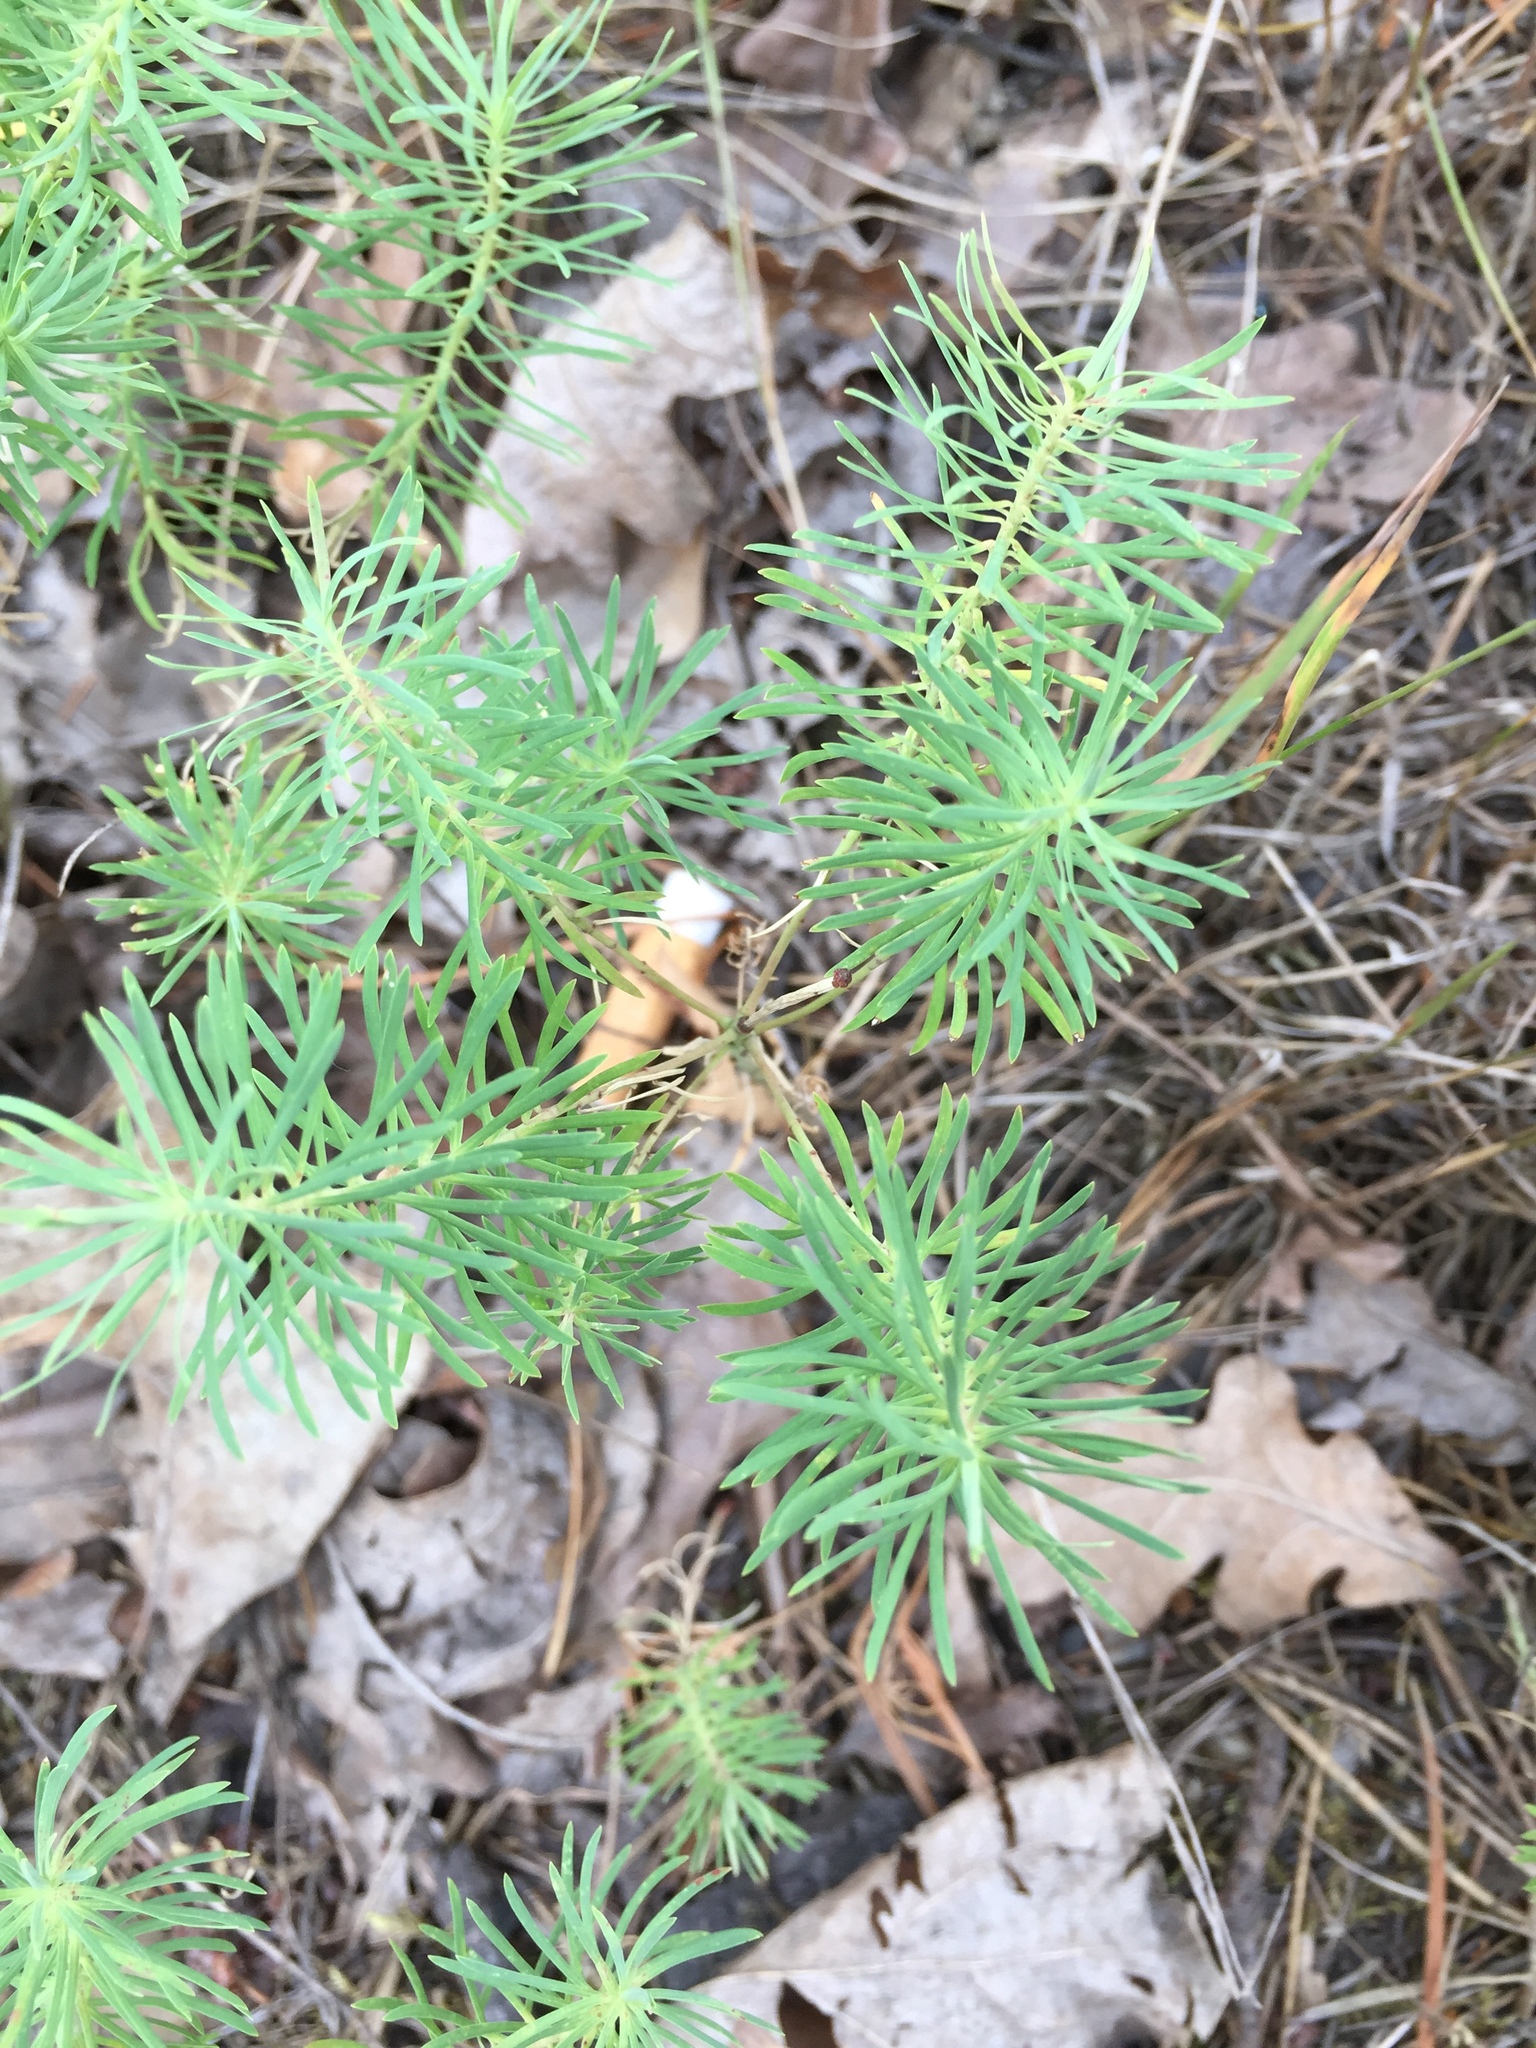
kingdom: Plantae
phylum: Tracheophyta
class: Magnoliopsida
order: Malpighiales
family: Euphorbiaceae
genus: Euphorbia
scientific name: Euphorbia cyparissias
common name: Cypress spurge
